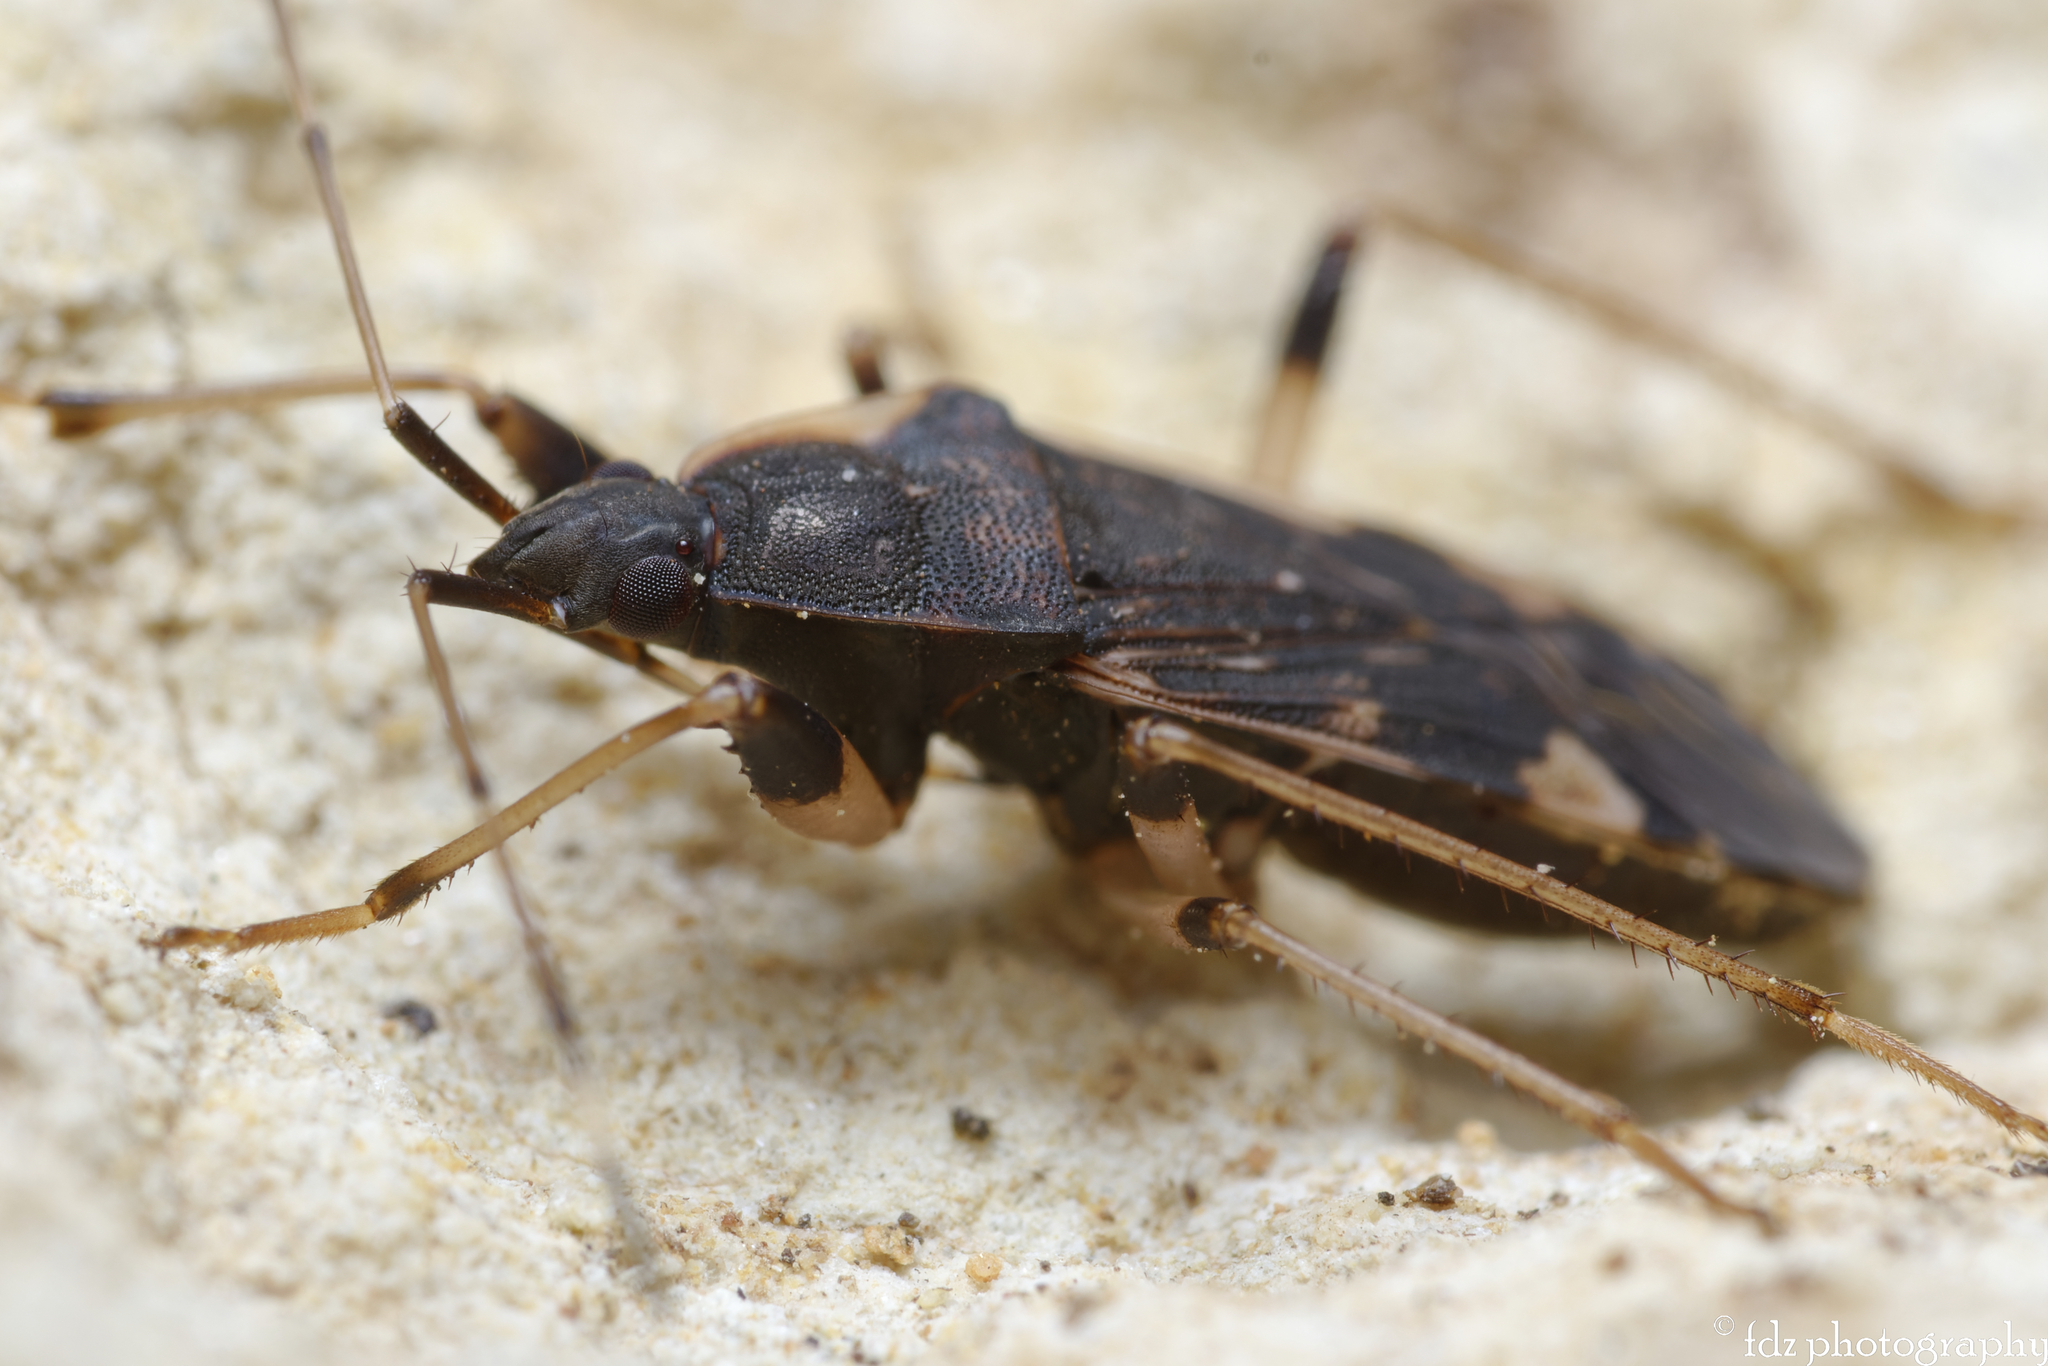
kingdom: Animalia
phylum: Arthropoda
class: Insecta
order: Hemiptera
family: Rhyparochromidae
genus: Dieuches
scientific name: Dieuches armatipes
